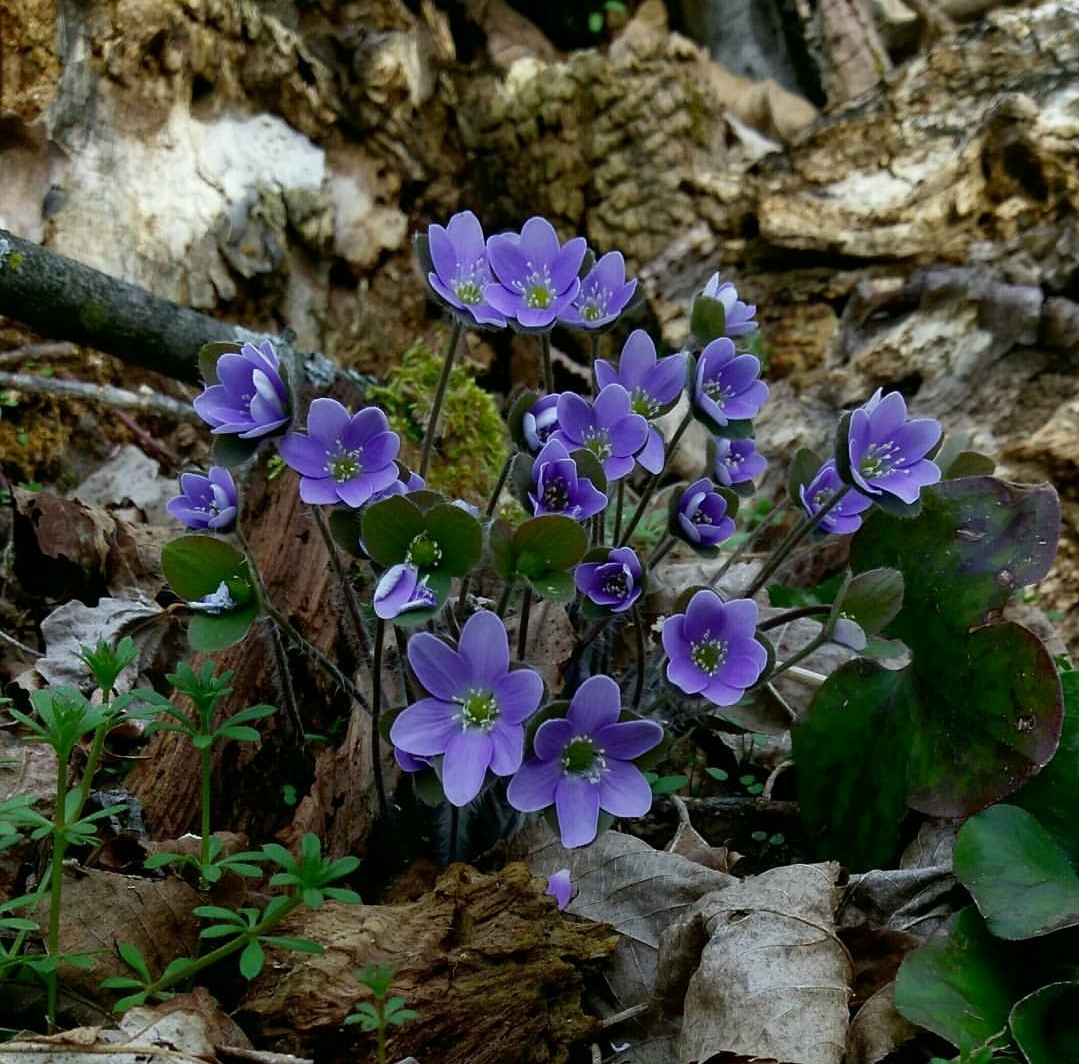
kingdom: Plantae
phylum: Tracheophyta
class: Magnoliopsida
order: Ranunculales
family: Ranunculaceae
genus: Hepatica
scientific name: Hepatica americana
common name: American hepatica
